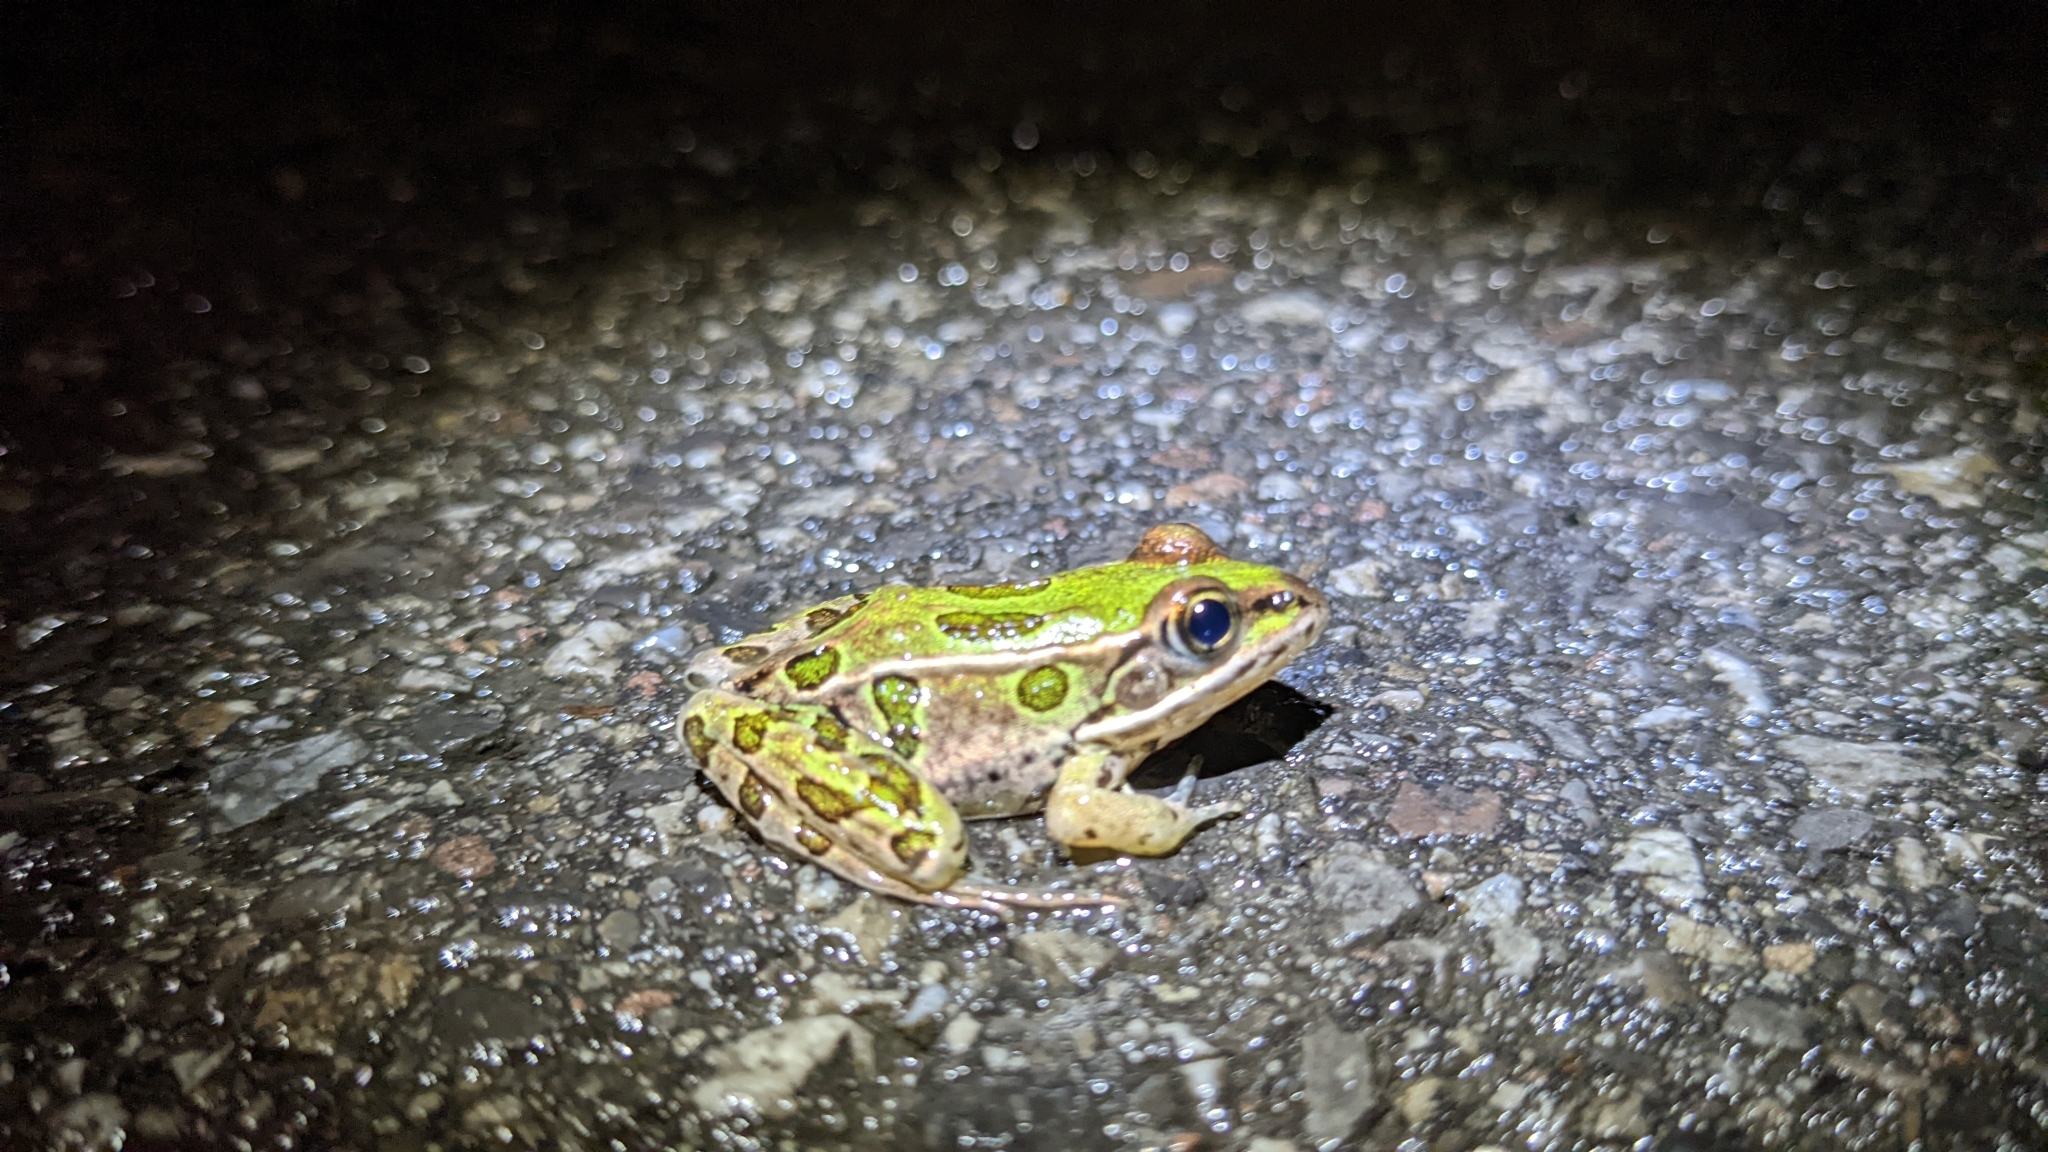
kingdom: Animalia
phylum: Chordata
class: Amphibia
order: Anura
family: Ranidae
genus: Lithobates
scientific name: Lithobates pipiens
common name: Northern leopard frog
